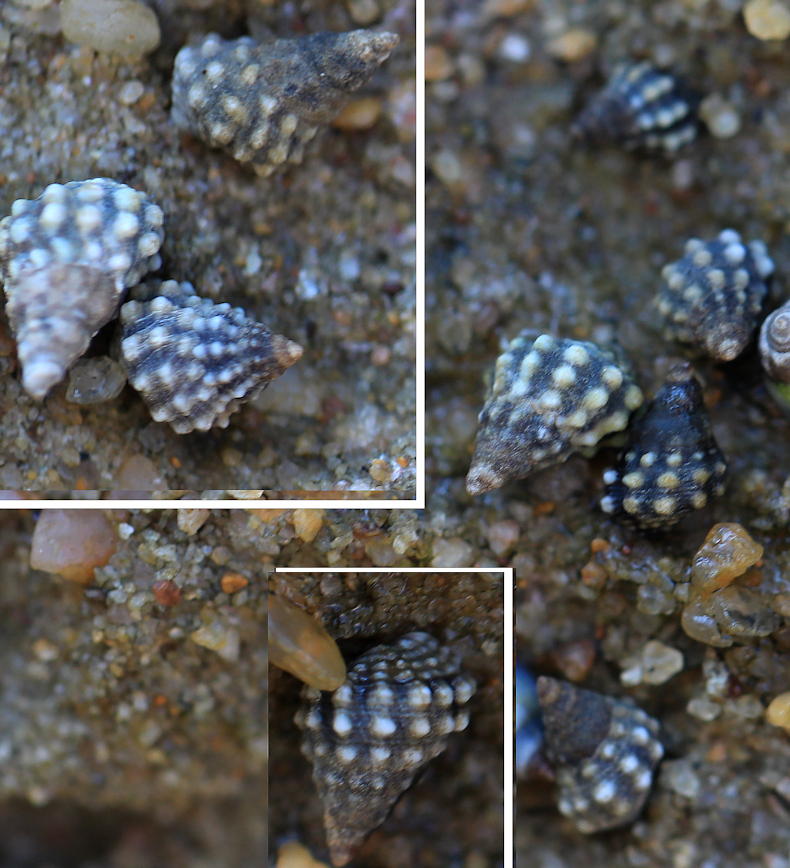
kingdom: Animalia
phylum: Mollusca
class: Gastropoda
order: Littorinimorpha
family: Littorinidae
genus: Echinolittorina
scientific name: Echinolittorina natalensis
